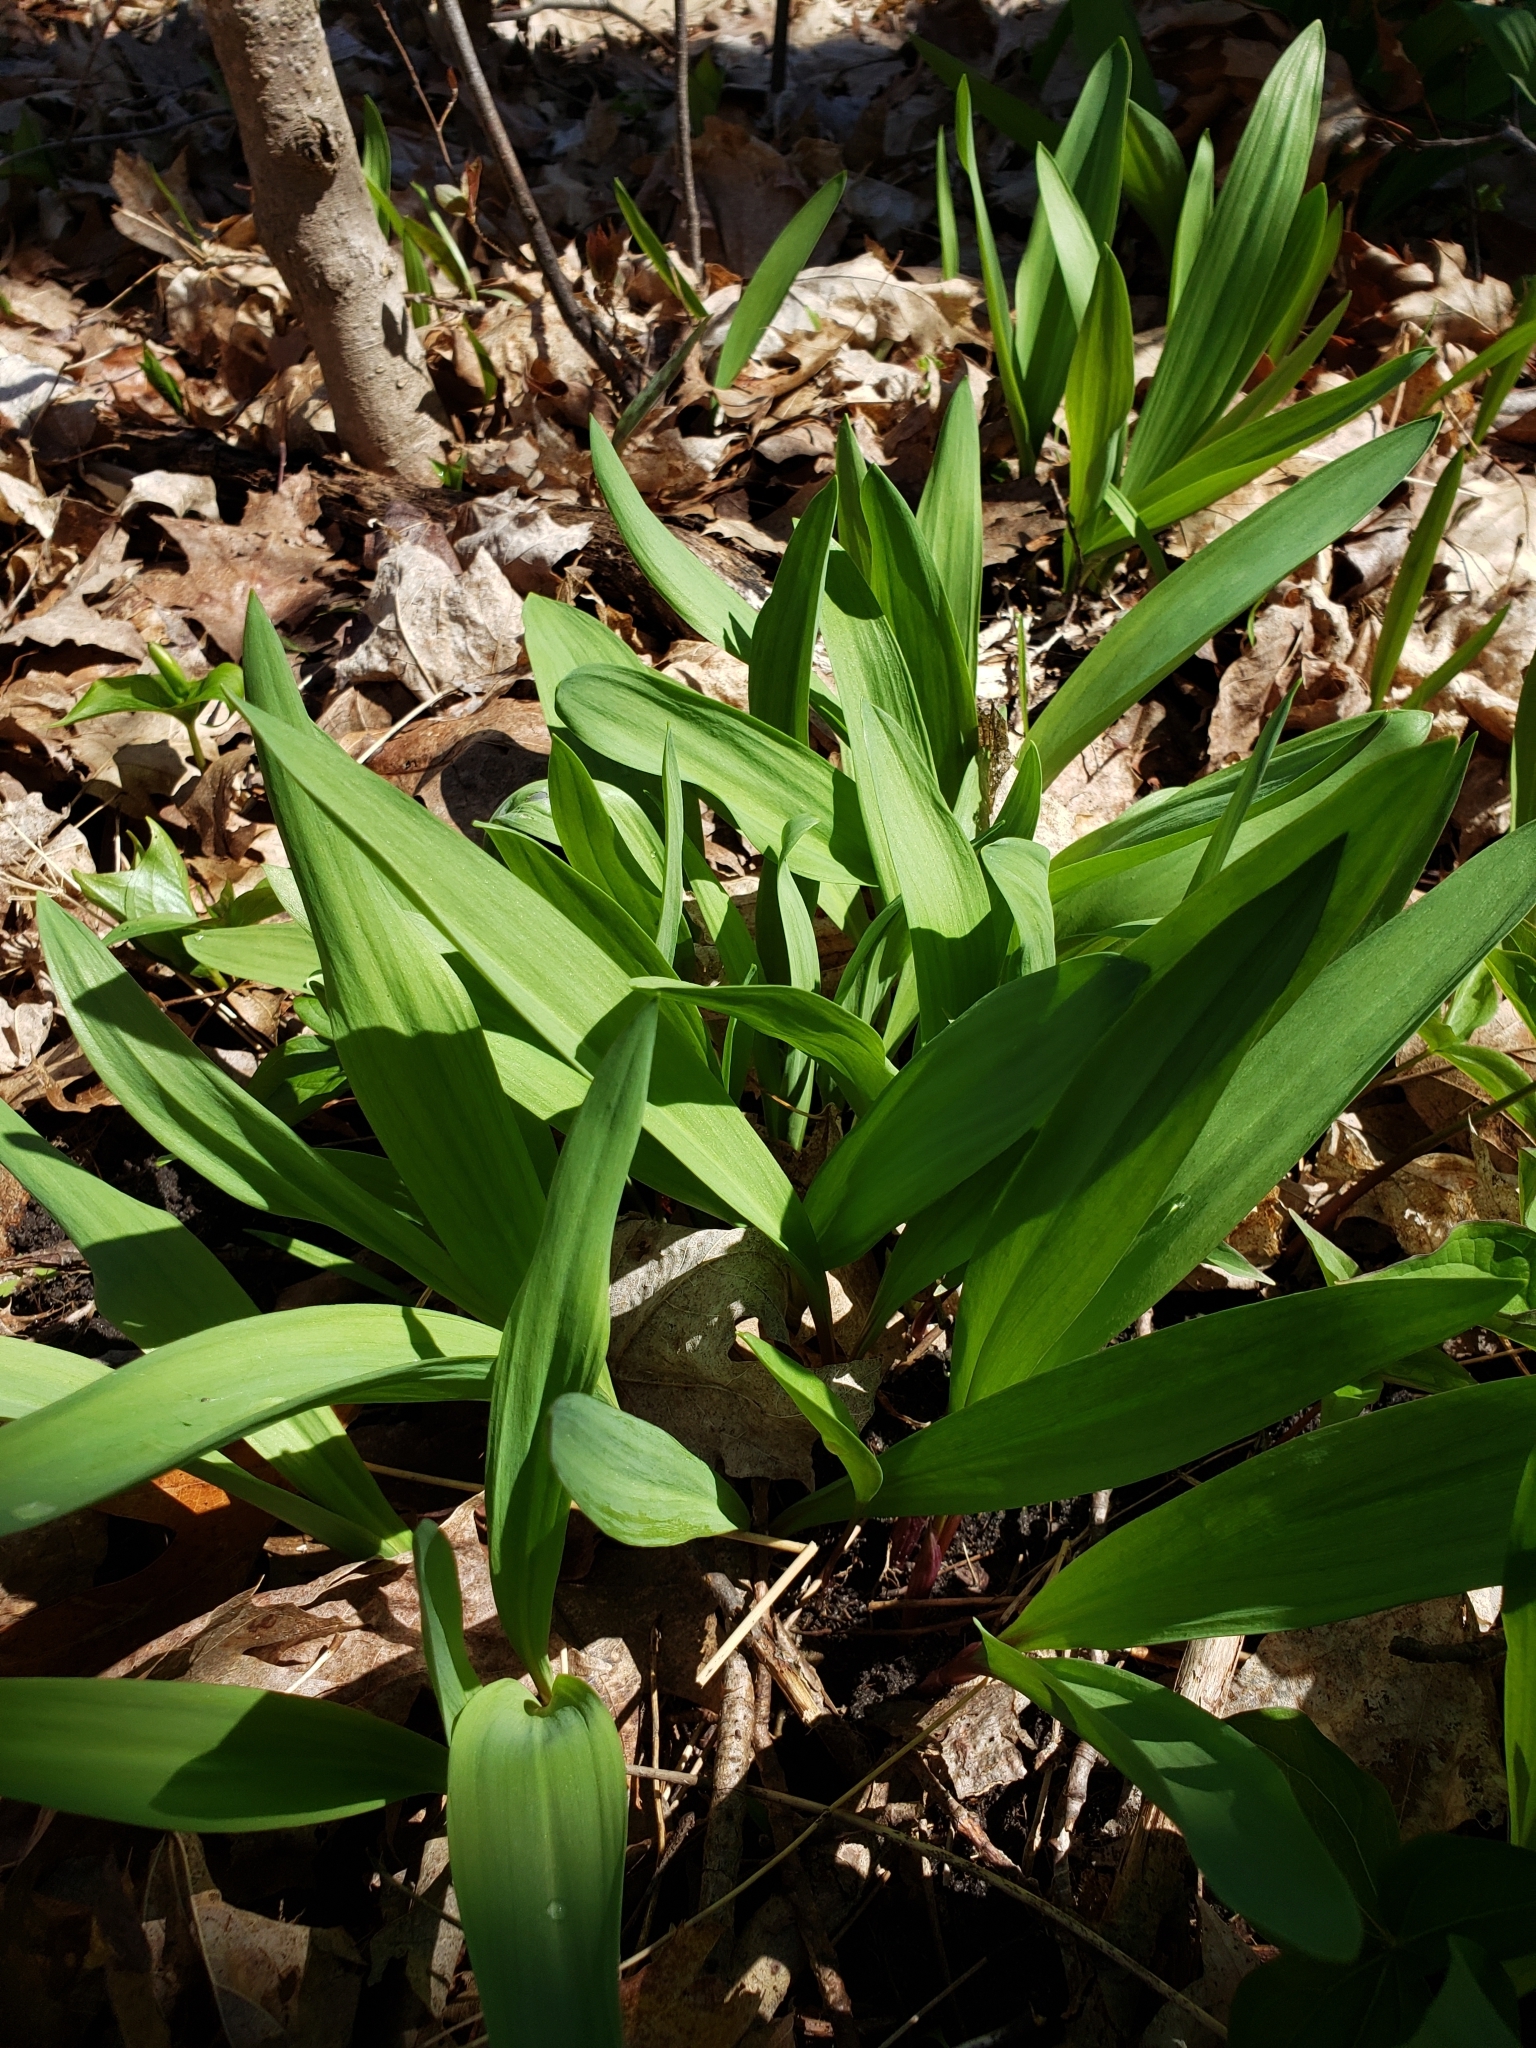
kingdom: Plantae
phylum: Tracheophyta
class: Liliopsida
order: Asparagales
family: Amaryllidaceae
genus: Allium
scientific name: Allium tricoccum
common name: Ramp
